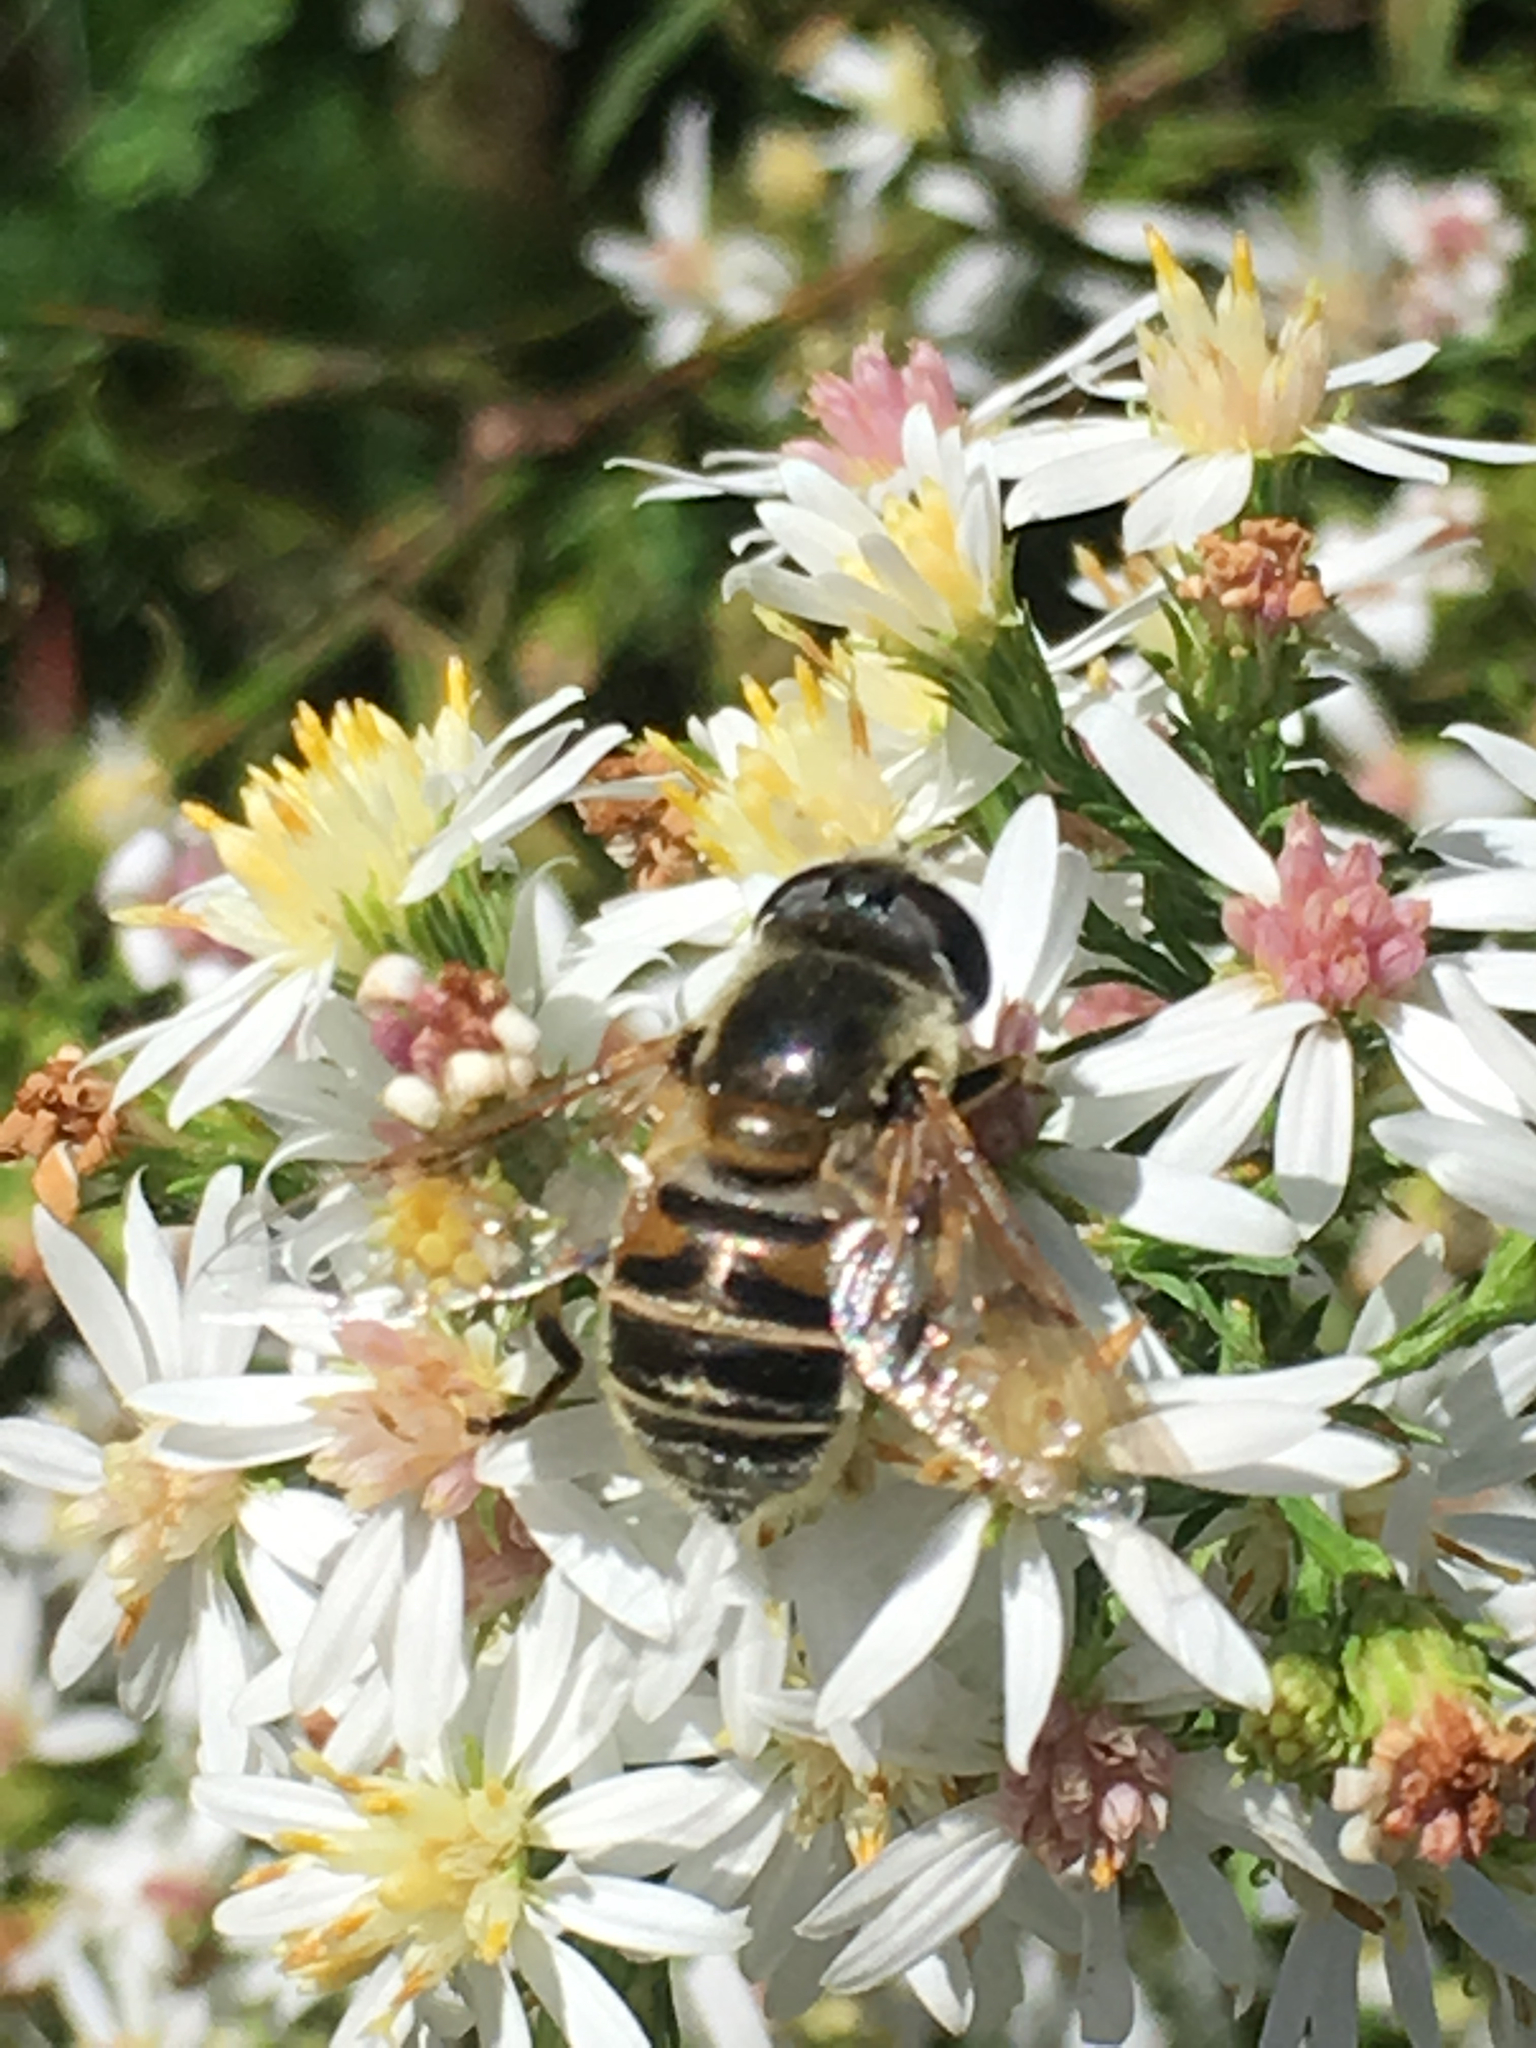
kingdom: Animalia
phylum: Arthropoda
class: Insecta
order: Diptera
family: Syrphidae
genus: Eristalis
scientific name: Eristalis stipator
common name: Yellow-shouldered drone fly
